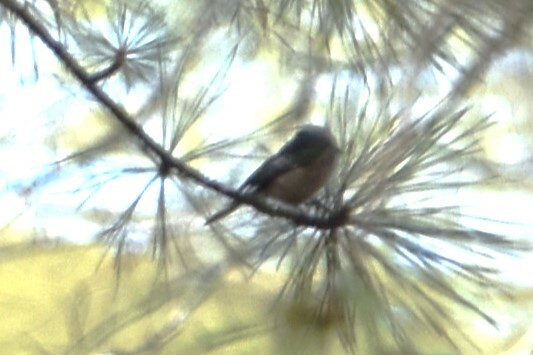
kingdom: Animalia
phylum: Chordata
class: Aves
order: Passeriformes
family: Paridae
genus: Poecile
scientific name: Poecile carolinensis
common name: Carolina chickadee
